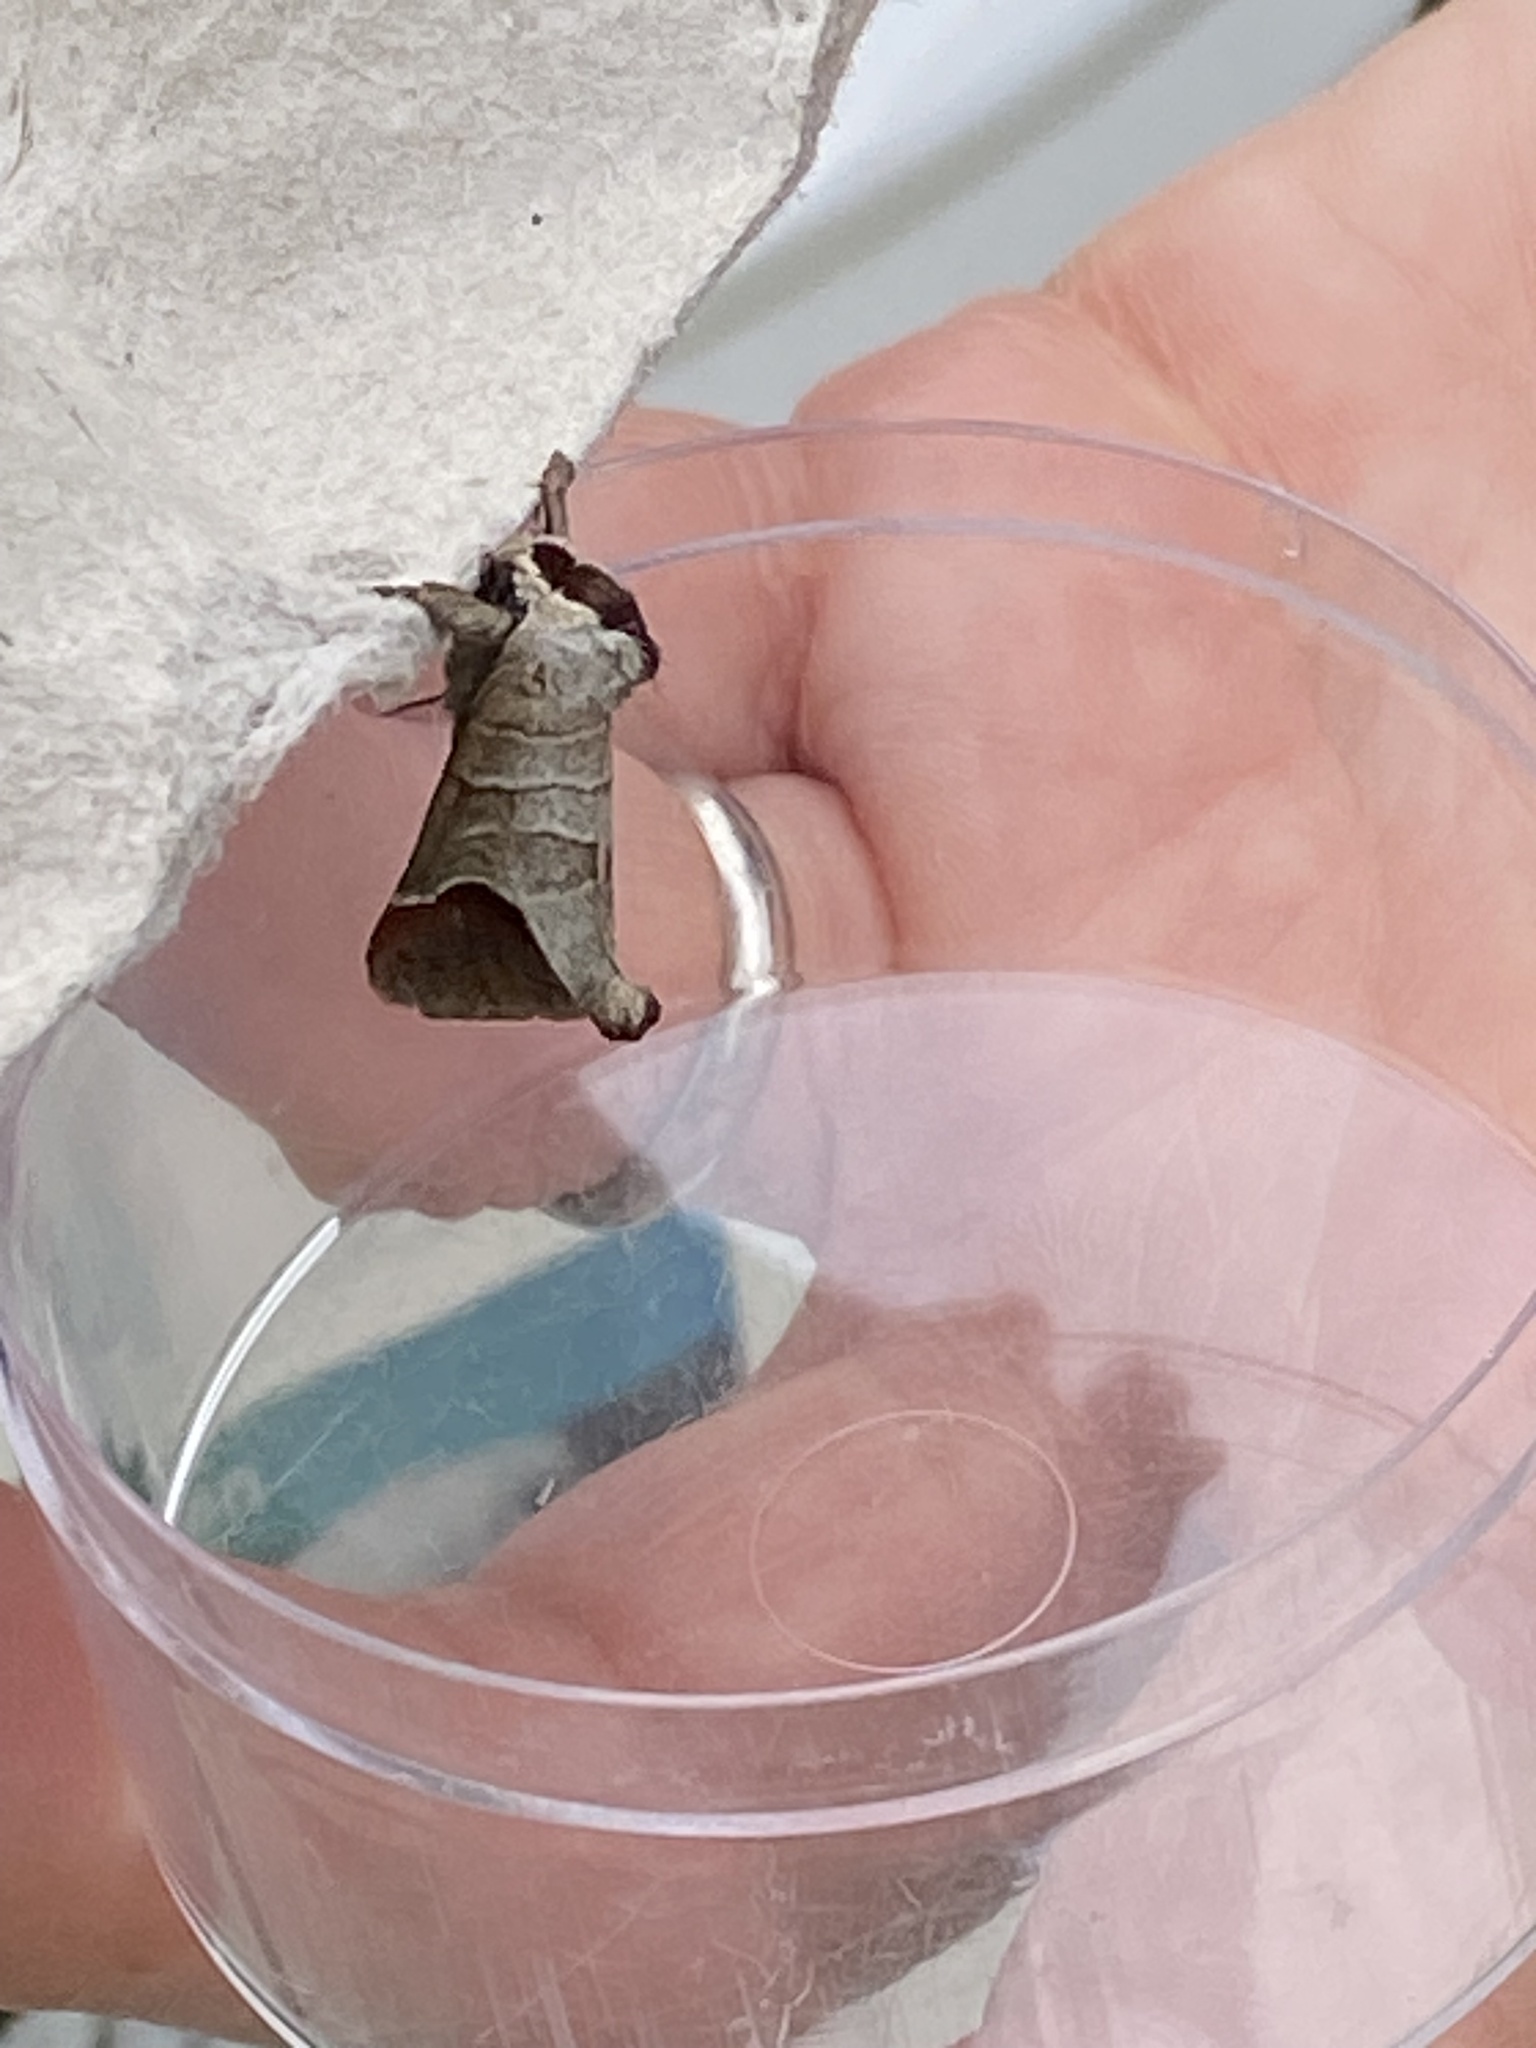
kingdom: Animalia
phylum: Arthropoda
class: Insecta
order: Lepidoptera
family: Notodontidae
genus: Clostera
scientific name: Clostera curtula
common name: Chocolate-tip
